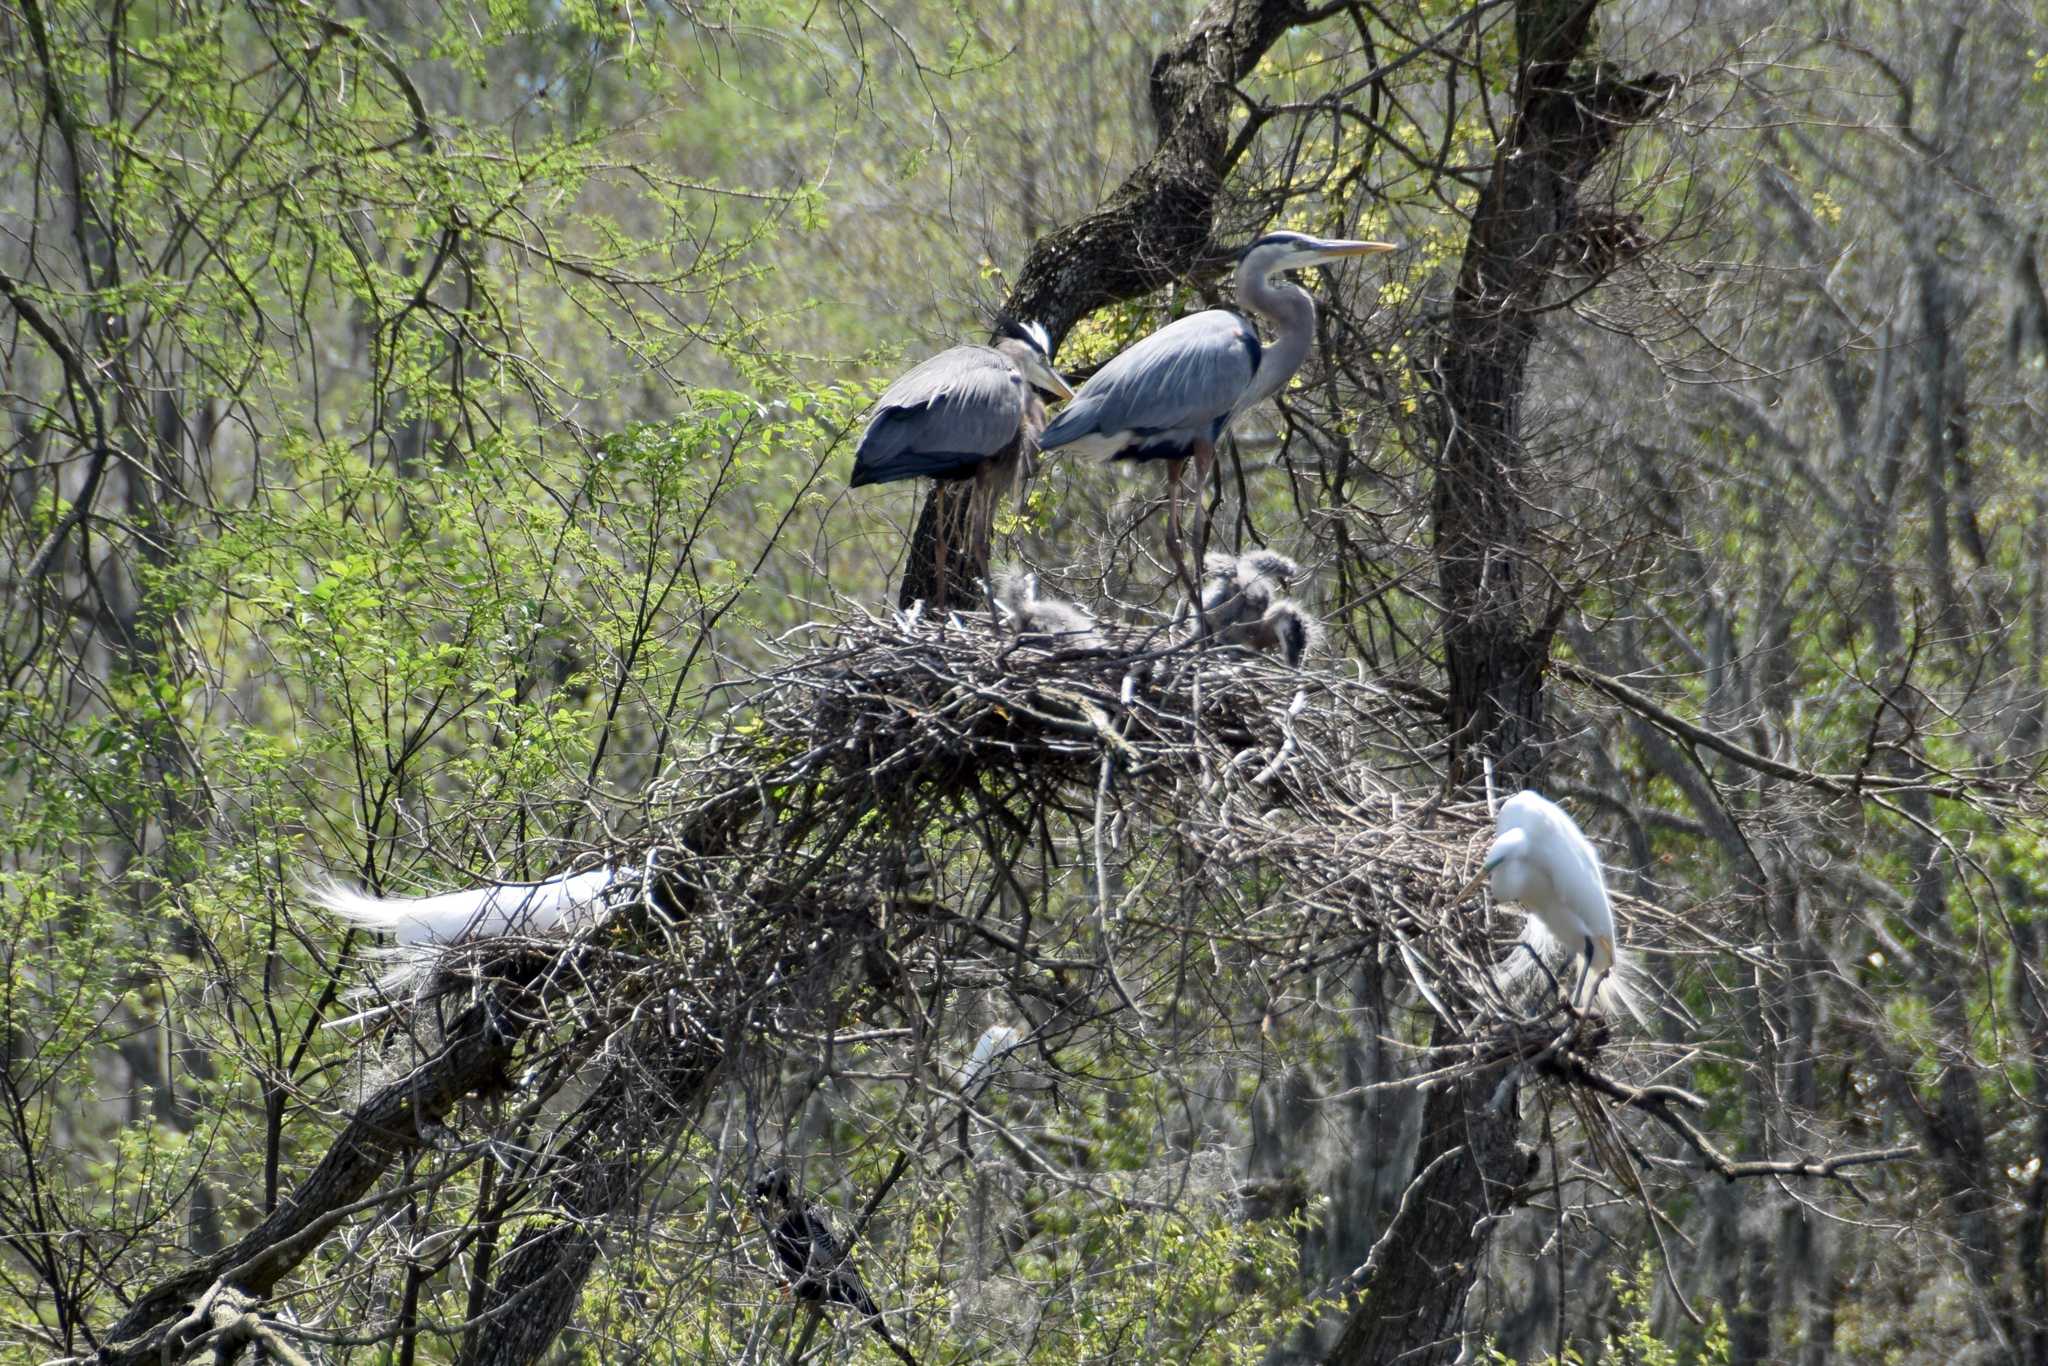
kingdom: Animalia
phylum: Chordata
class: Aves
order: Pelecaniformes
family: Ardeidae
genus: Ardea
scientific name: Ardea herodias
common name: Great blue heron
